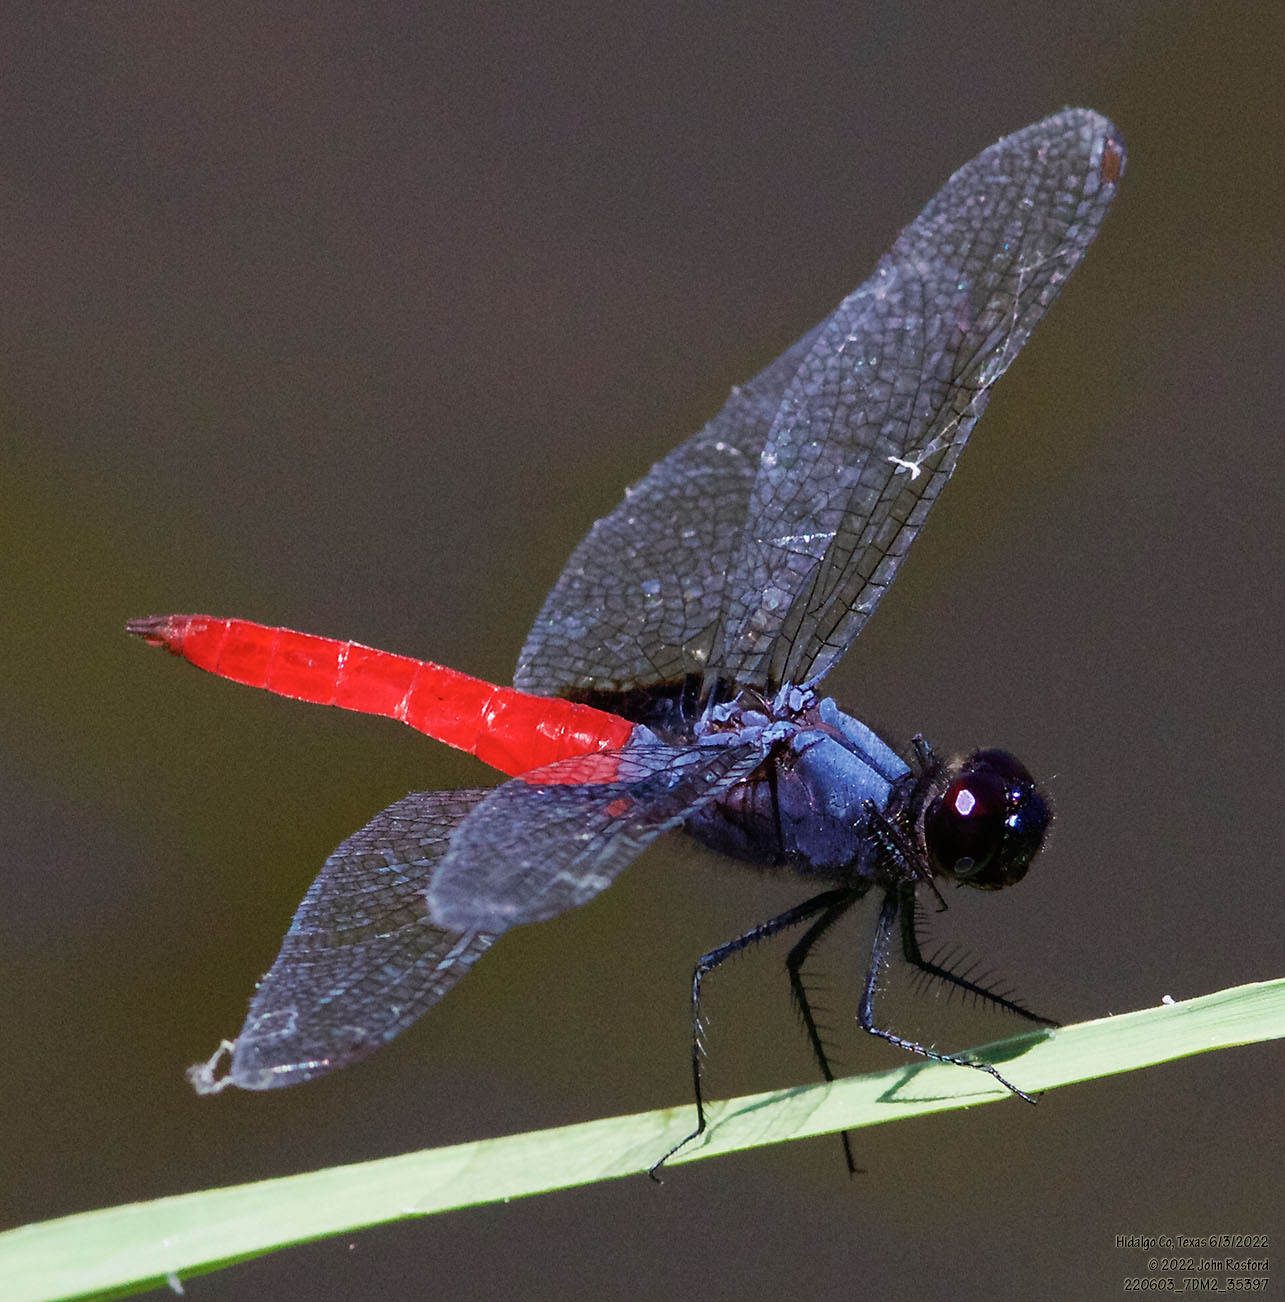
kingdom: Animalia
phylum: Arthropoda
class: Insecta
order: Odonata
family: Libellulidae
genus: Planiplax
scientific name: Planiplax sanguiniventris
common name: Mexican scarlet-tail
